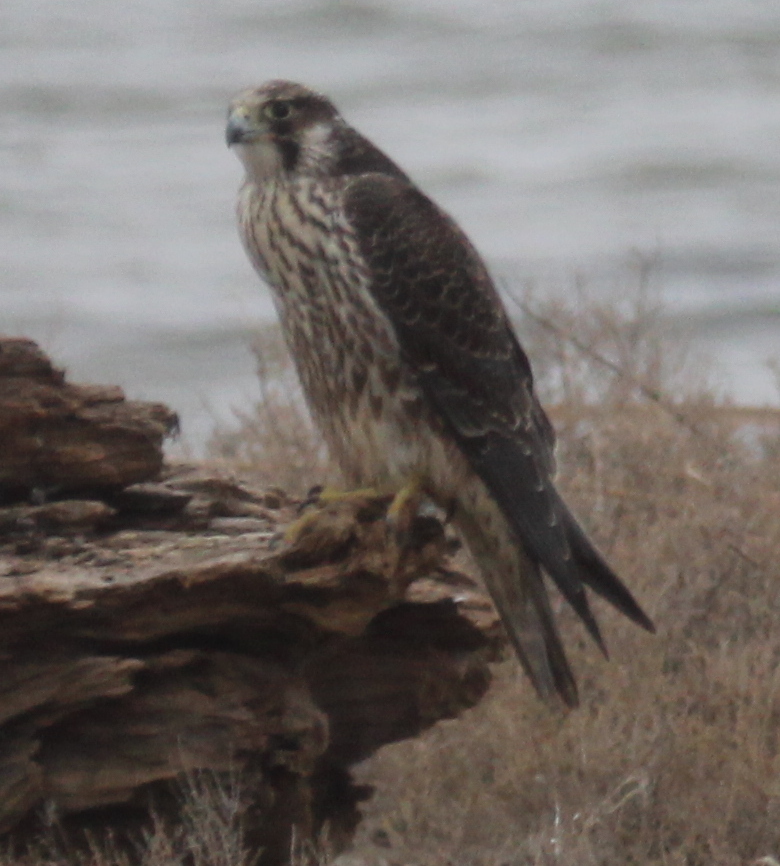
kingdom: Animalia
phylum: Chordata
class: Aves
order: Falconiformes
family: Falconidae
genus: Falco
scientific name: Falco peregrinus
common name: Peregrine falcon
